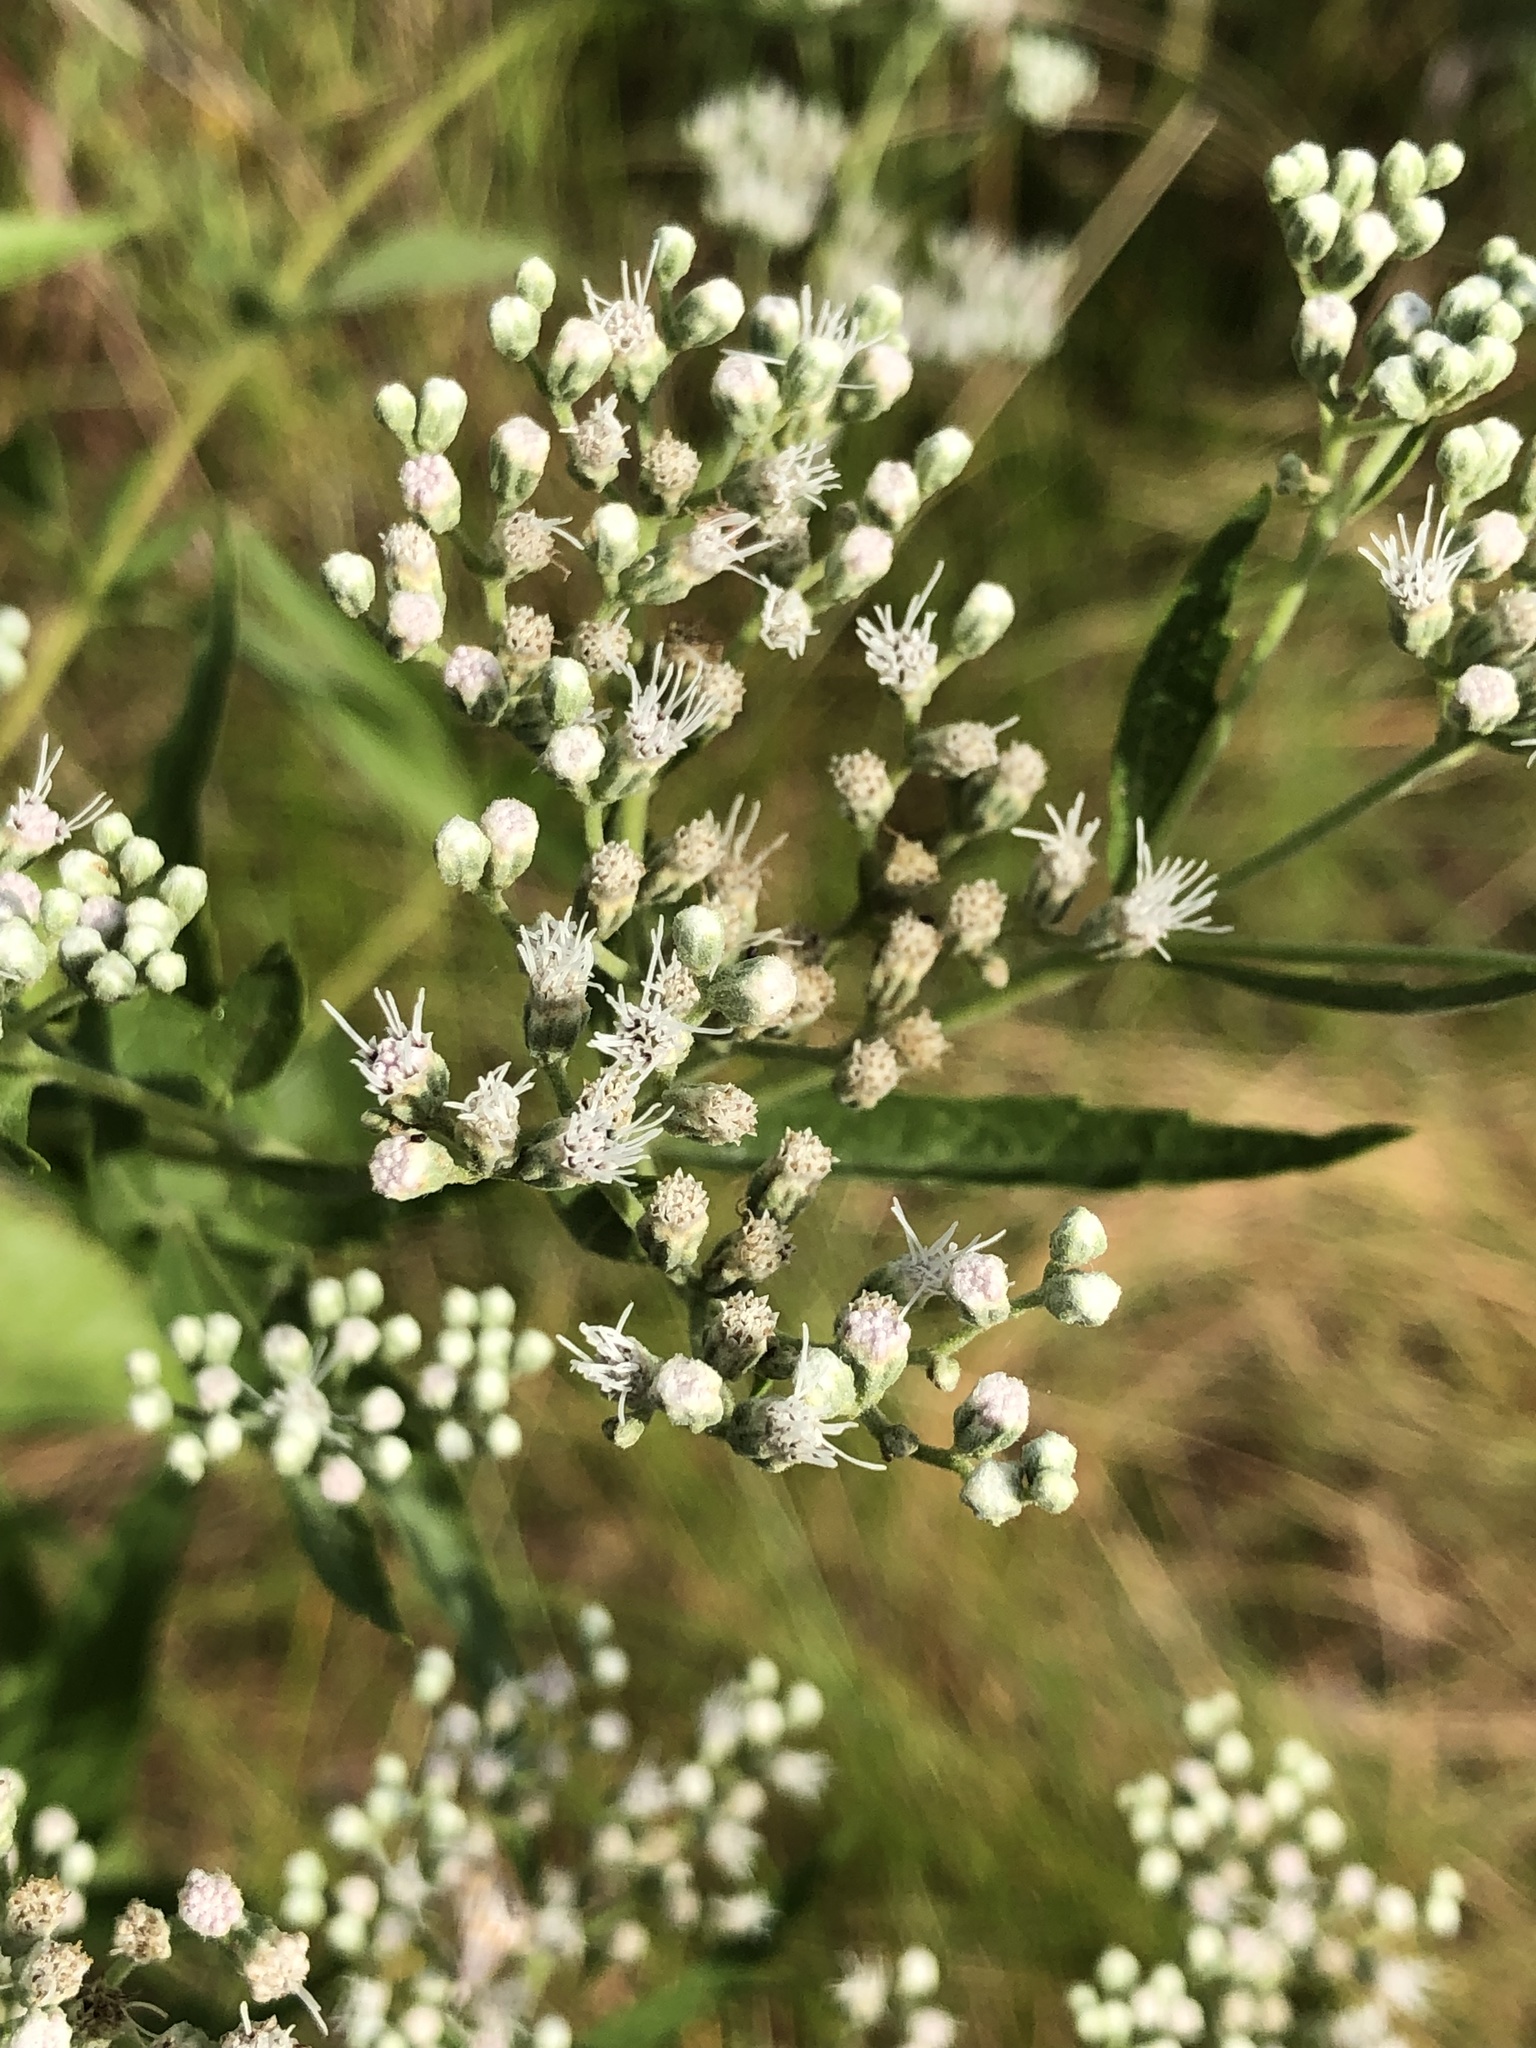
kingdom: Plantae
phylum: Tracheophyta
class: Magnoliopsida
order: Asterales
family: Asteraceae
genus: Eupatorium
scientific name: Eupatorium serotinum
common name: Late boneset
